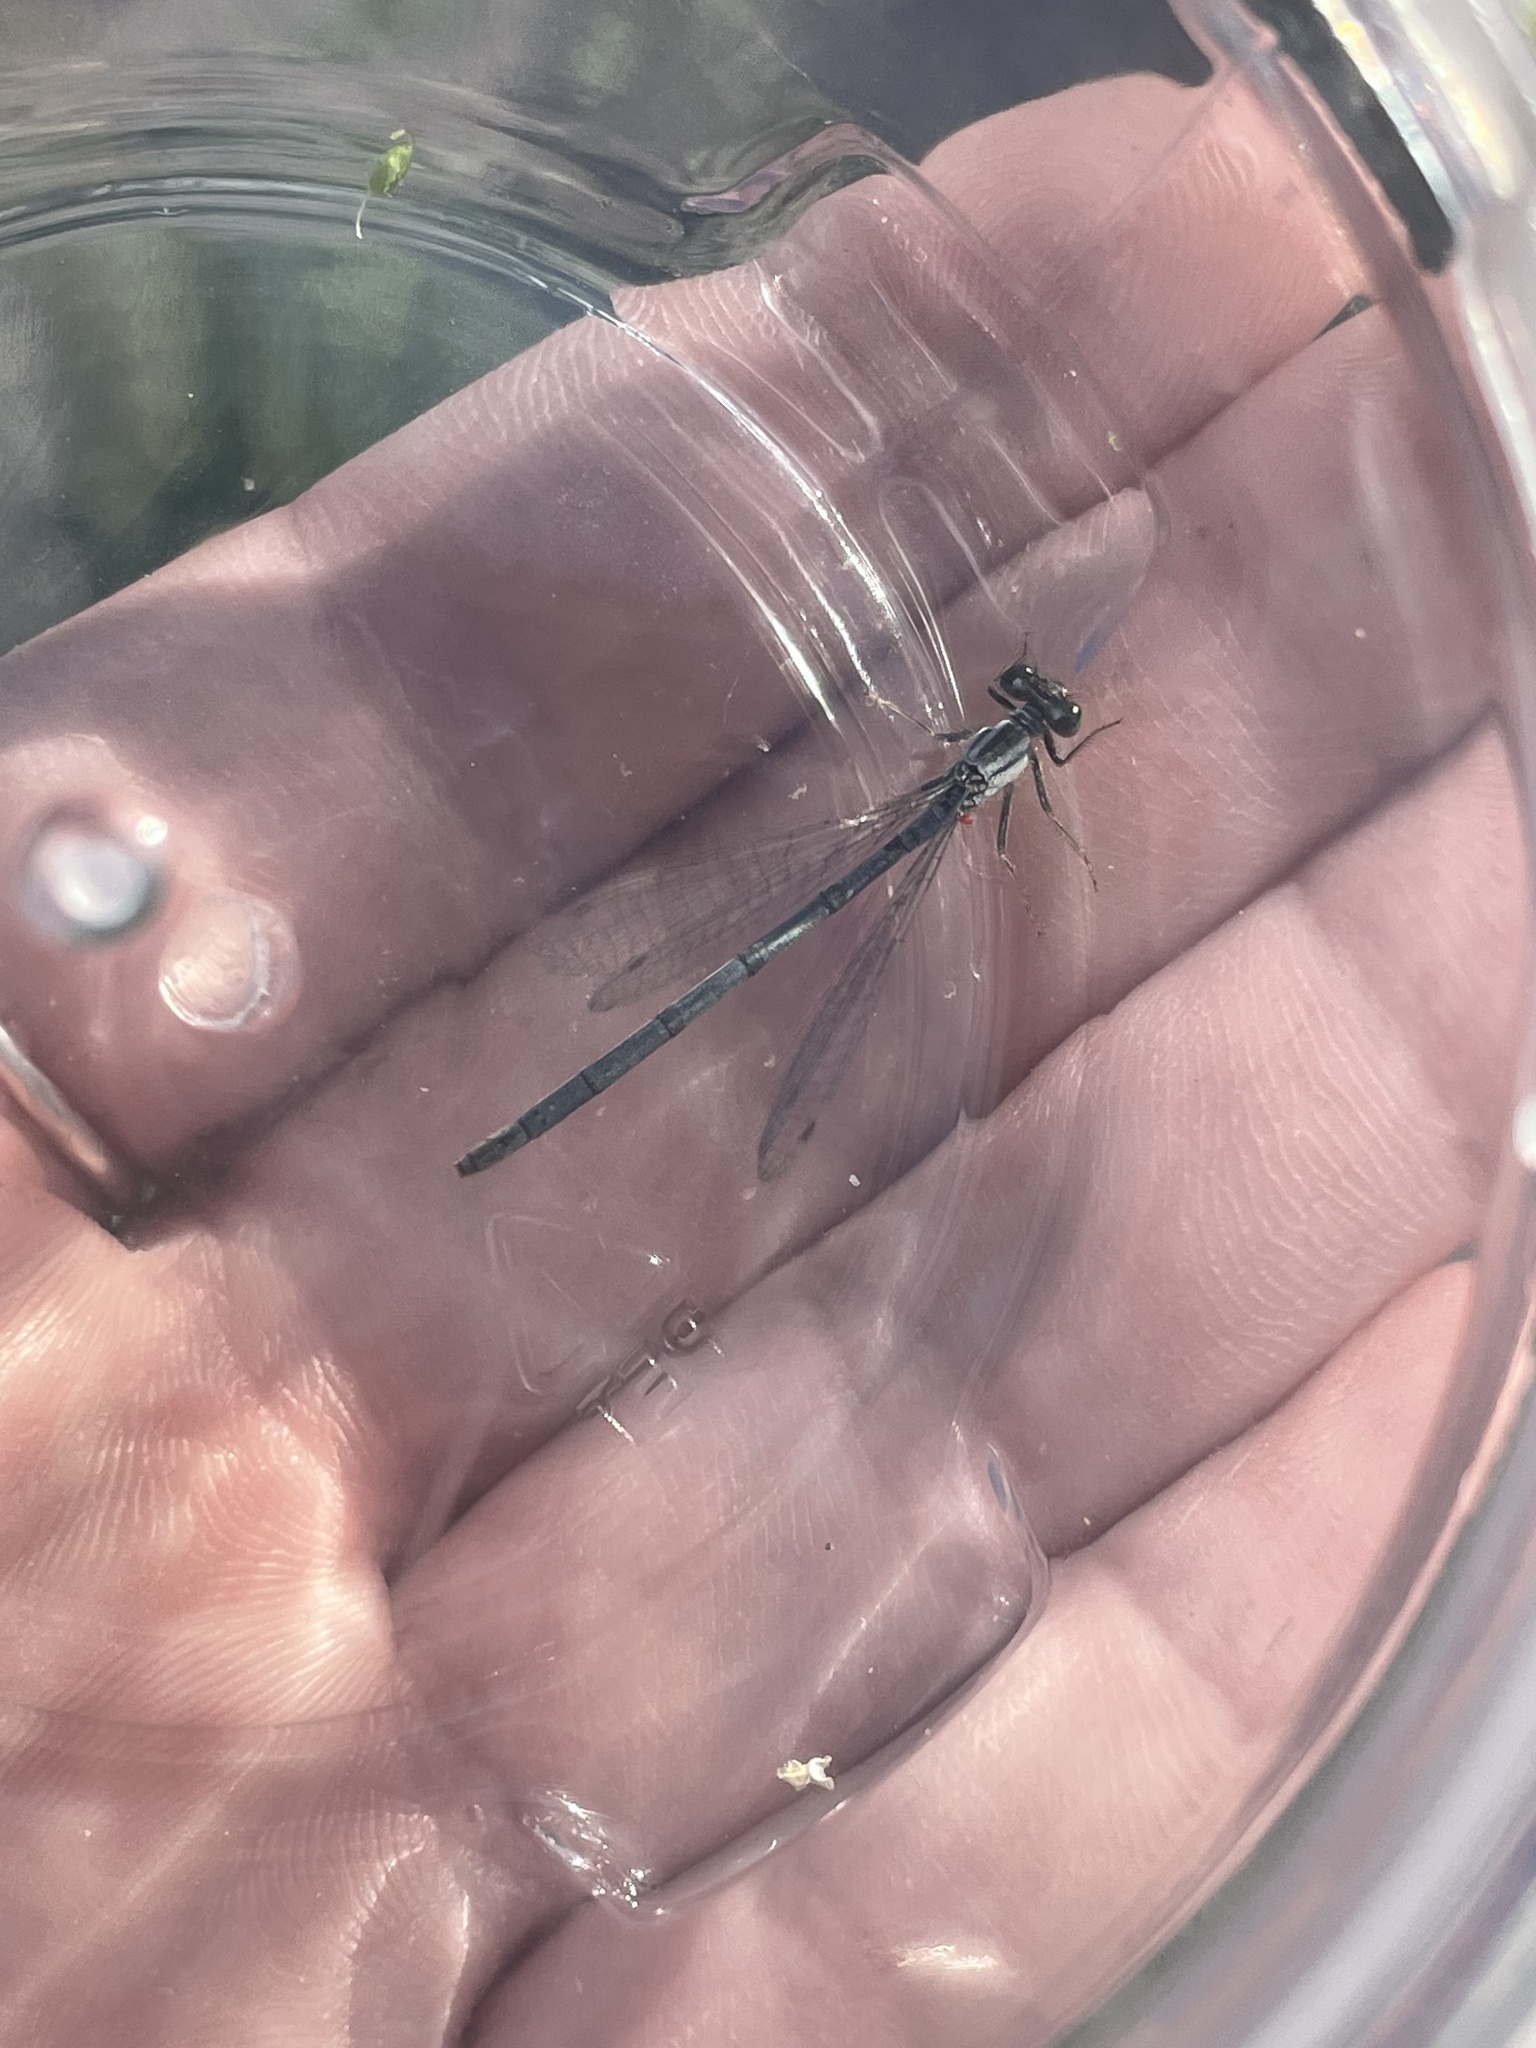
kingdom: Animalia
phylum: Arthropoda
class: Insecta
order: Odonata
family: Coenagrionidae
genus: Ischnura
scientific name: Ischnura verticalis
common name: Eastern forktail
